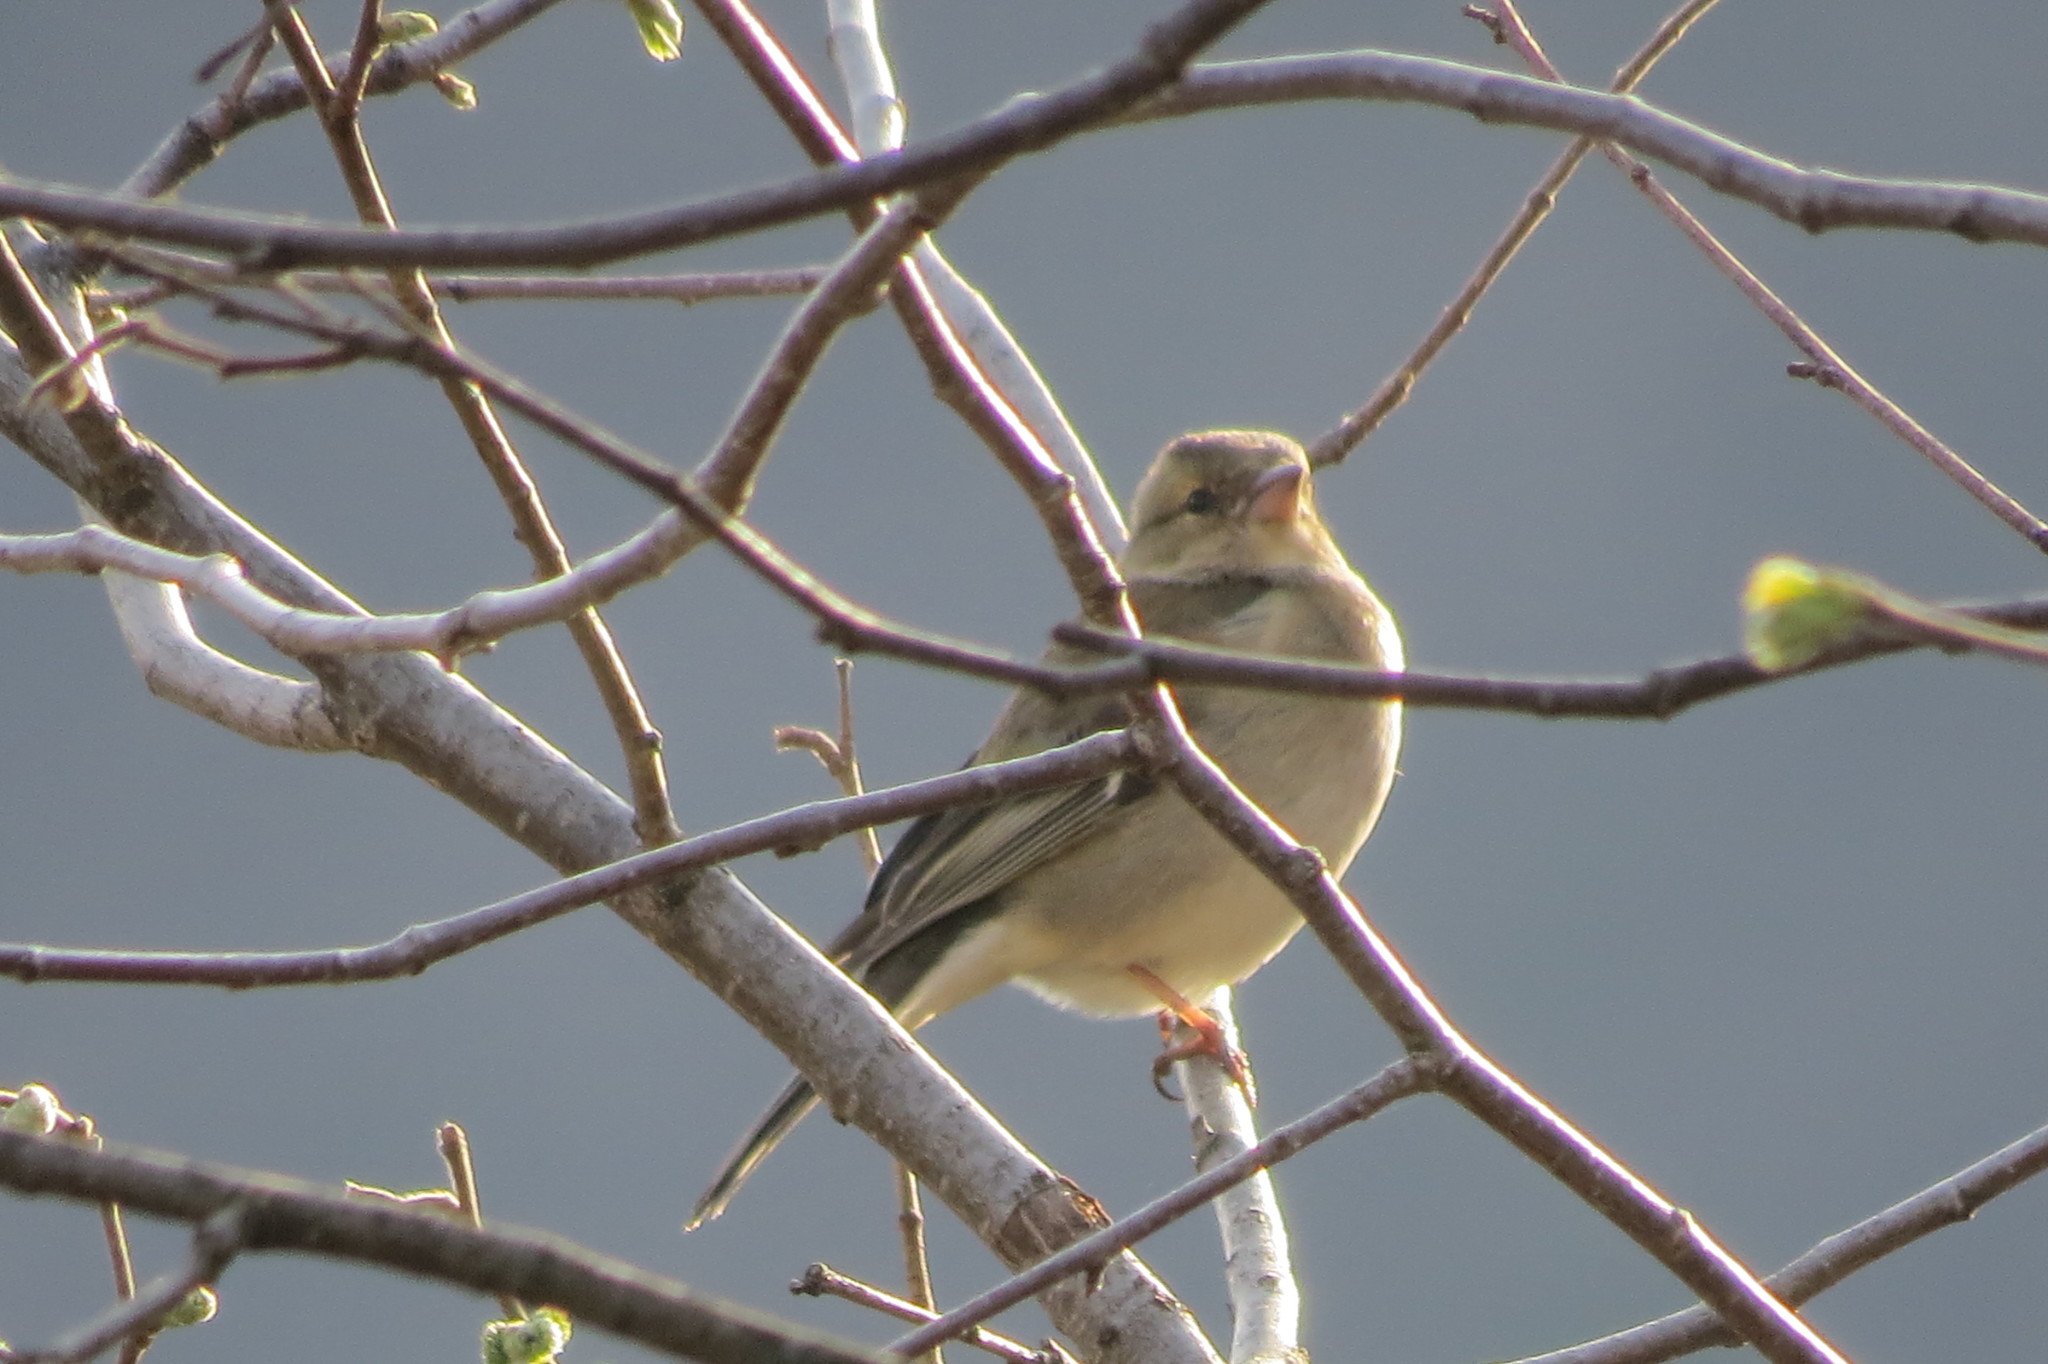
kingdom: Animalia
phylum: Chordata
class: Aves
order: Passeriformes
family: Fringillidae
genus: Fringilla
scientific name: Fringilla coelebs
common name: Common chaffinch
